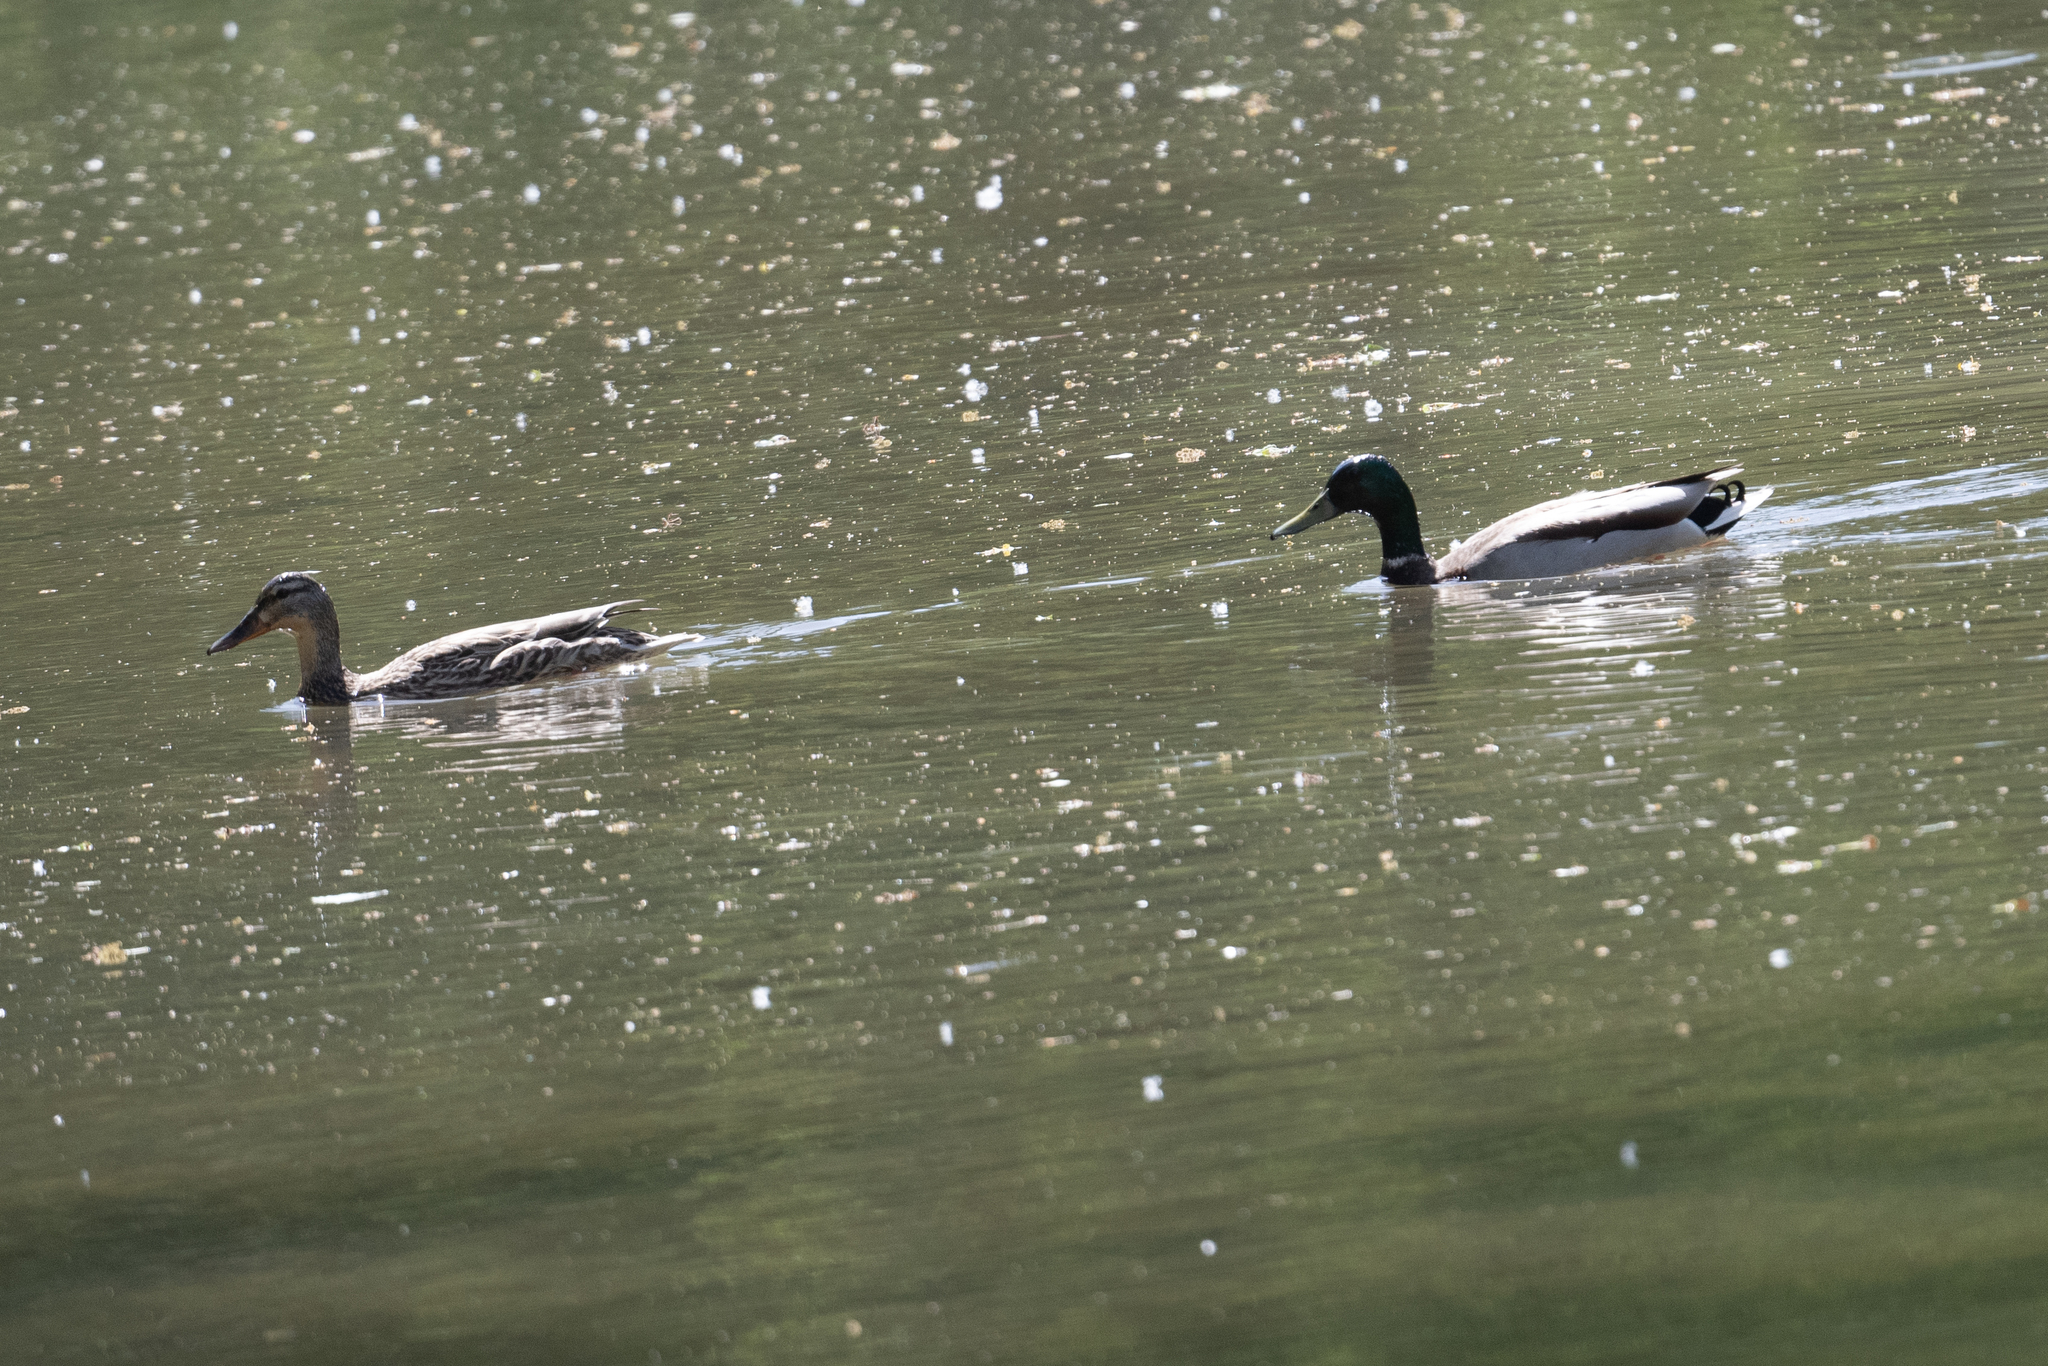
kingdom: Animalia
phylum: Chordata
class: Aves
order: Anseriformes
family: Anatidae
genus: Anas
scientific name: Anas platyrhynchos
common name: Mallard
